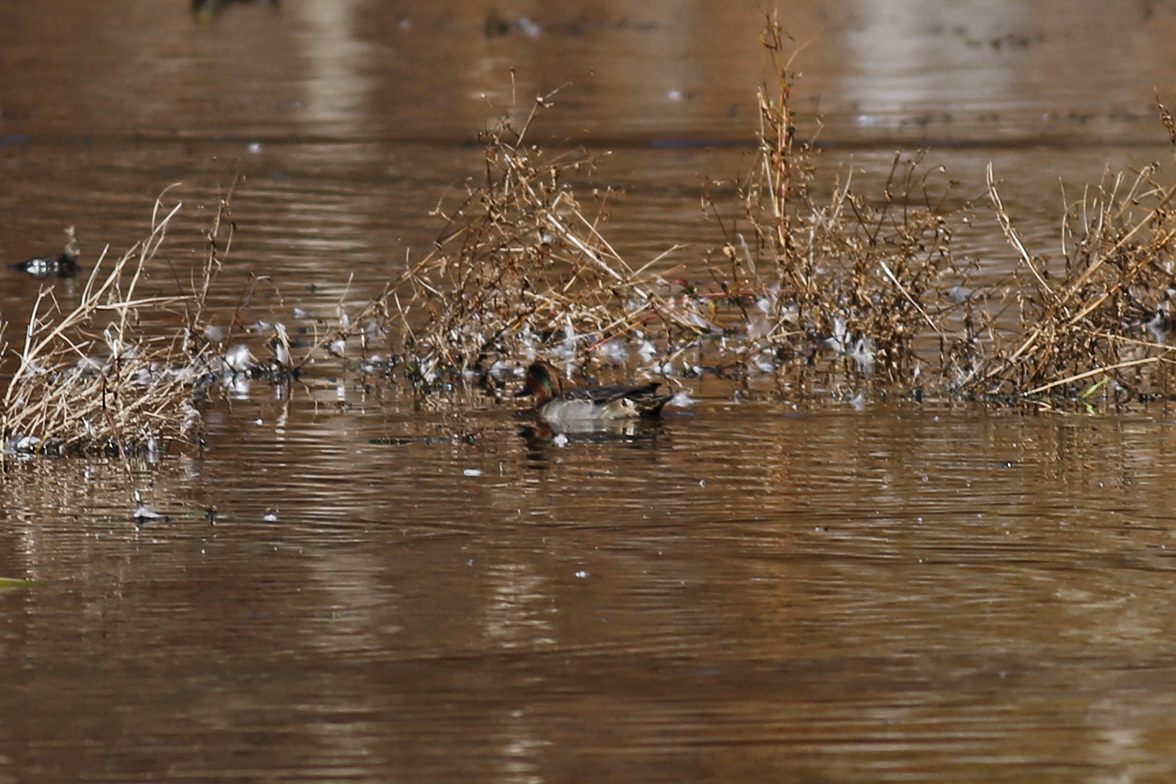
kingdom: Animalia
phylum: Chordata
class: Aves
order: Anseriformes
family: Anatidae
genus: Anas
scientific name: Anas crecca
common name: Eurasian teal
